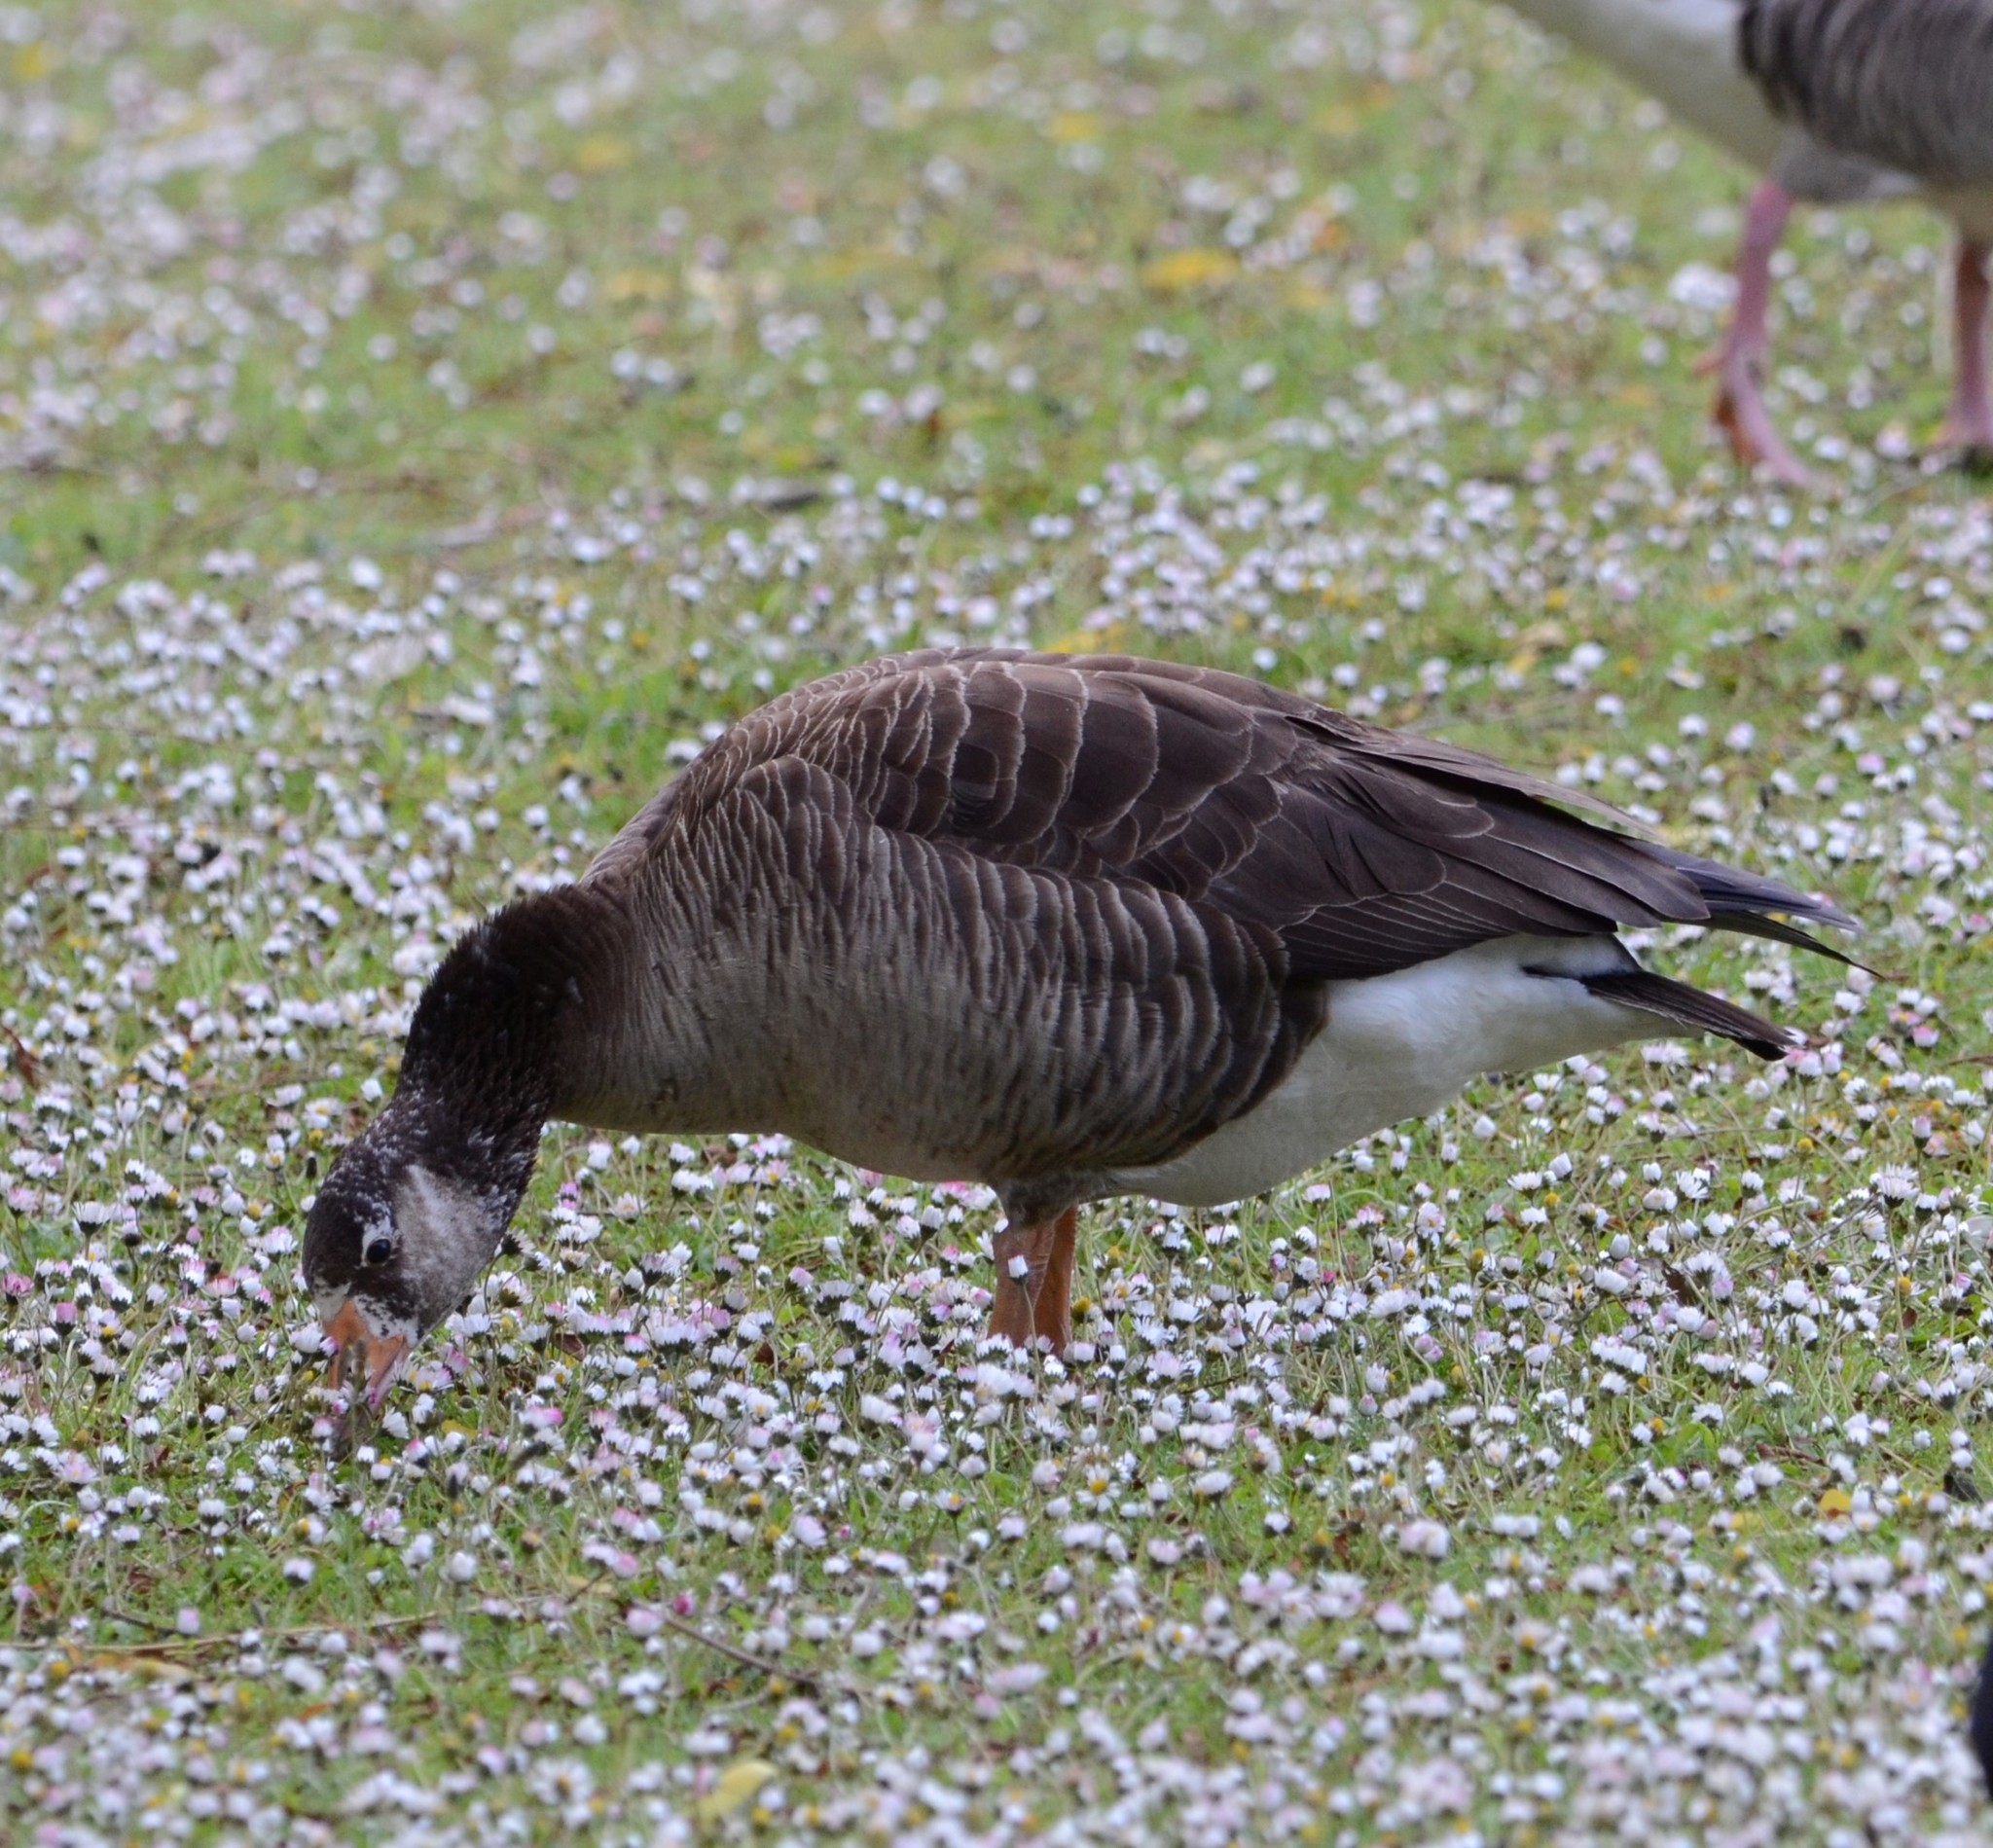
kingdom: Animalia
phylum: Chordata
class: Aves
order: Anseriformes
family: Anatidae
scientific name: Anatidae
